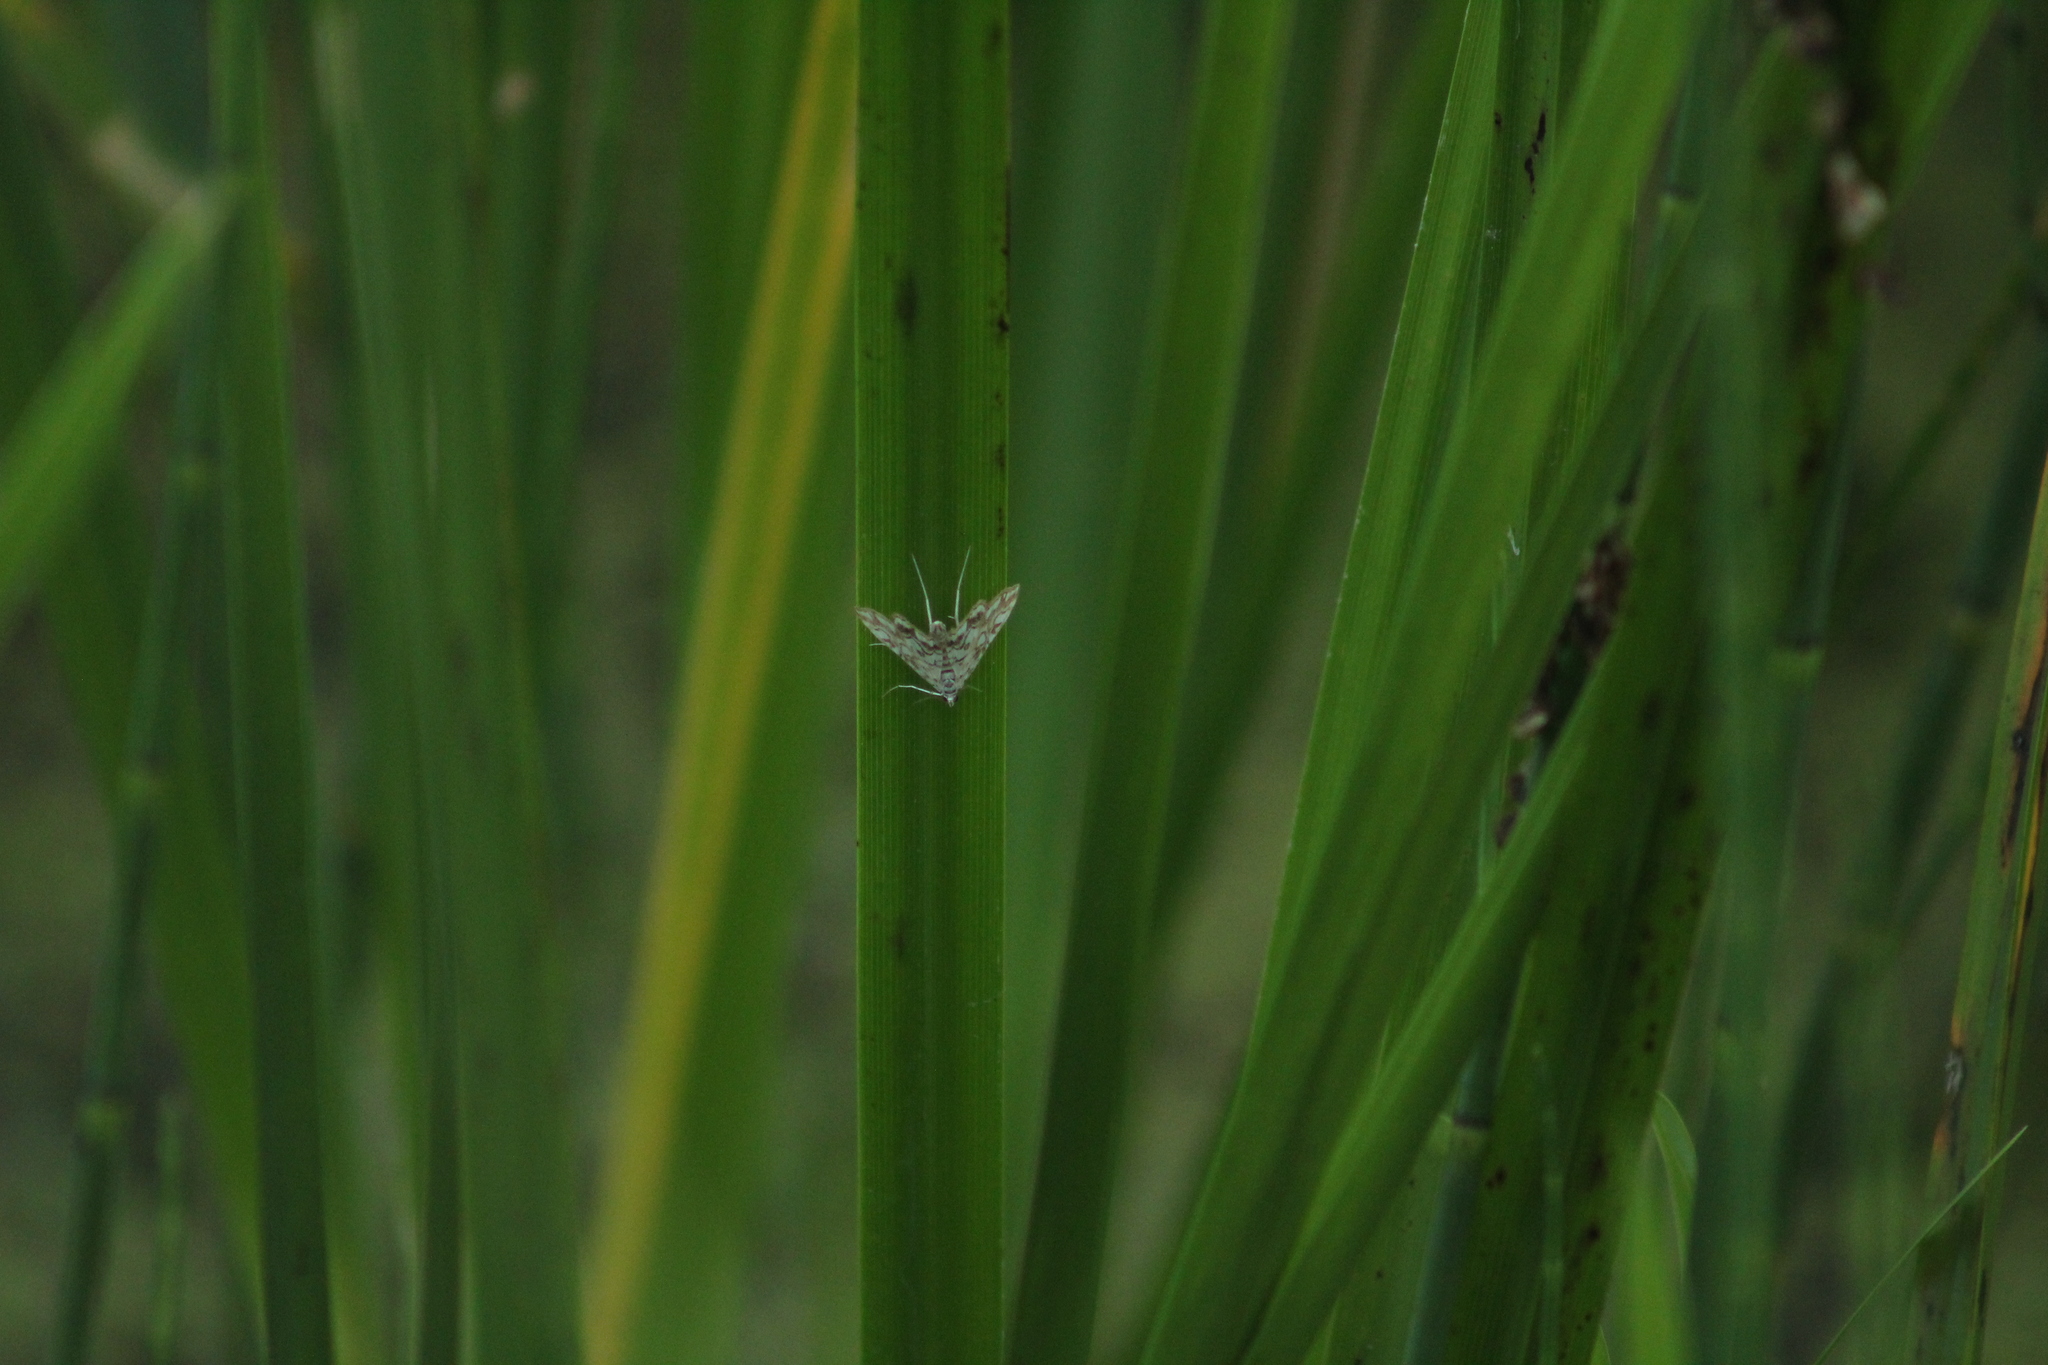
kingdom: Animalia
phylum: Arthropoda
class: Insecta
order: Lepidoptera
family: Crambidae
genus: Elophila
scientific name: Elophila nymphaeata
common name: Brown china-mark
